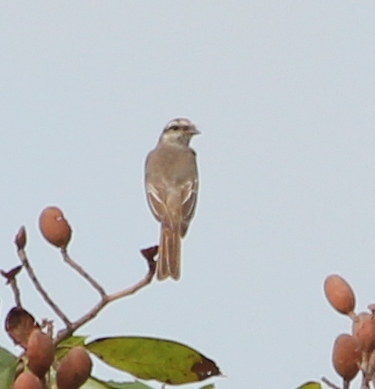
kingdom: Animalia
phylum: Chordata
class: Aves
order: Passeriformes
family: Tyrannidae
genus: Empidonomus
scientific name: Empidonomus aurantioatrocristatus
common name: Crowned slaty flycatcher
